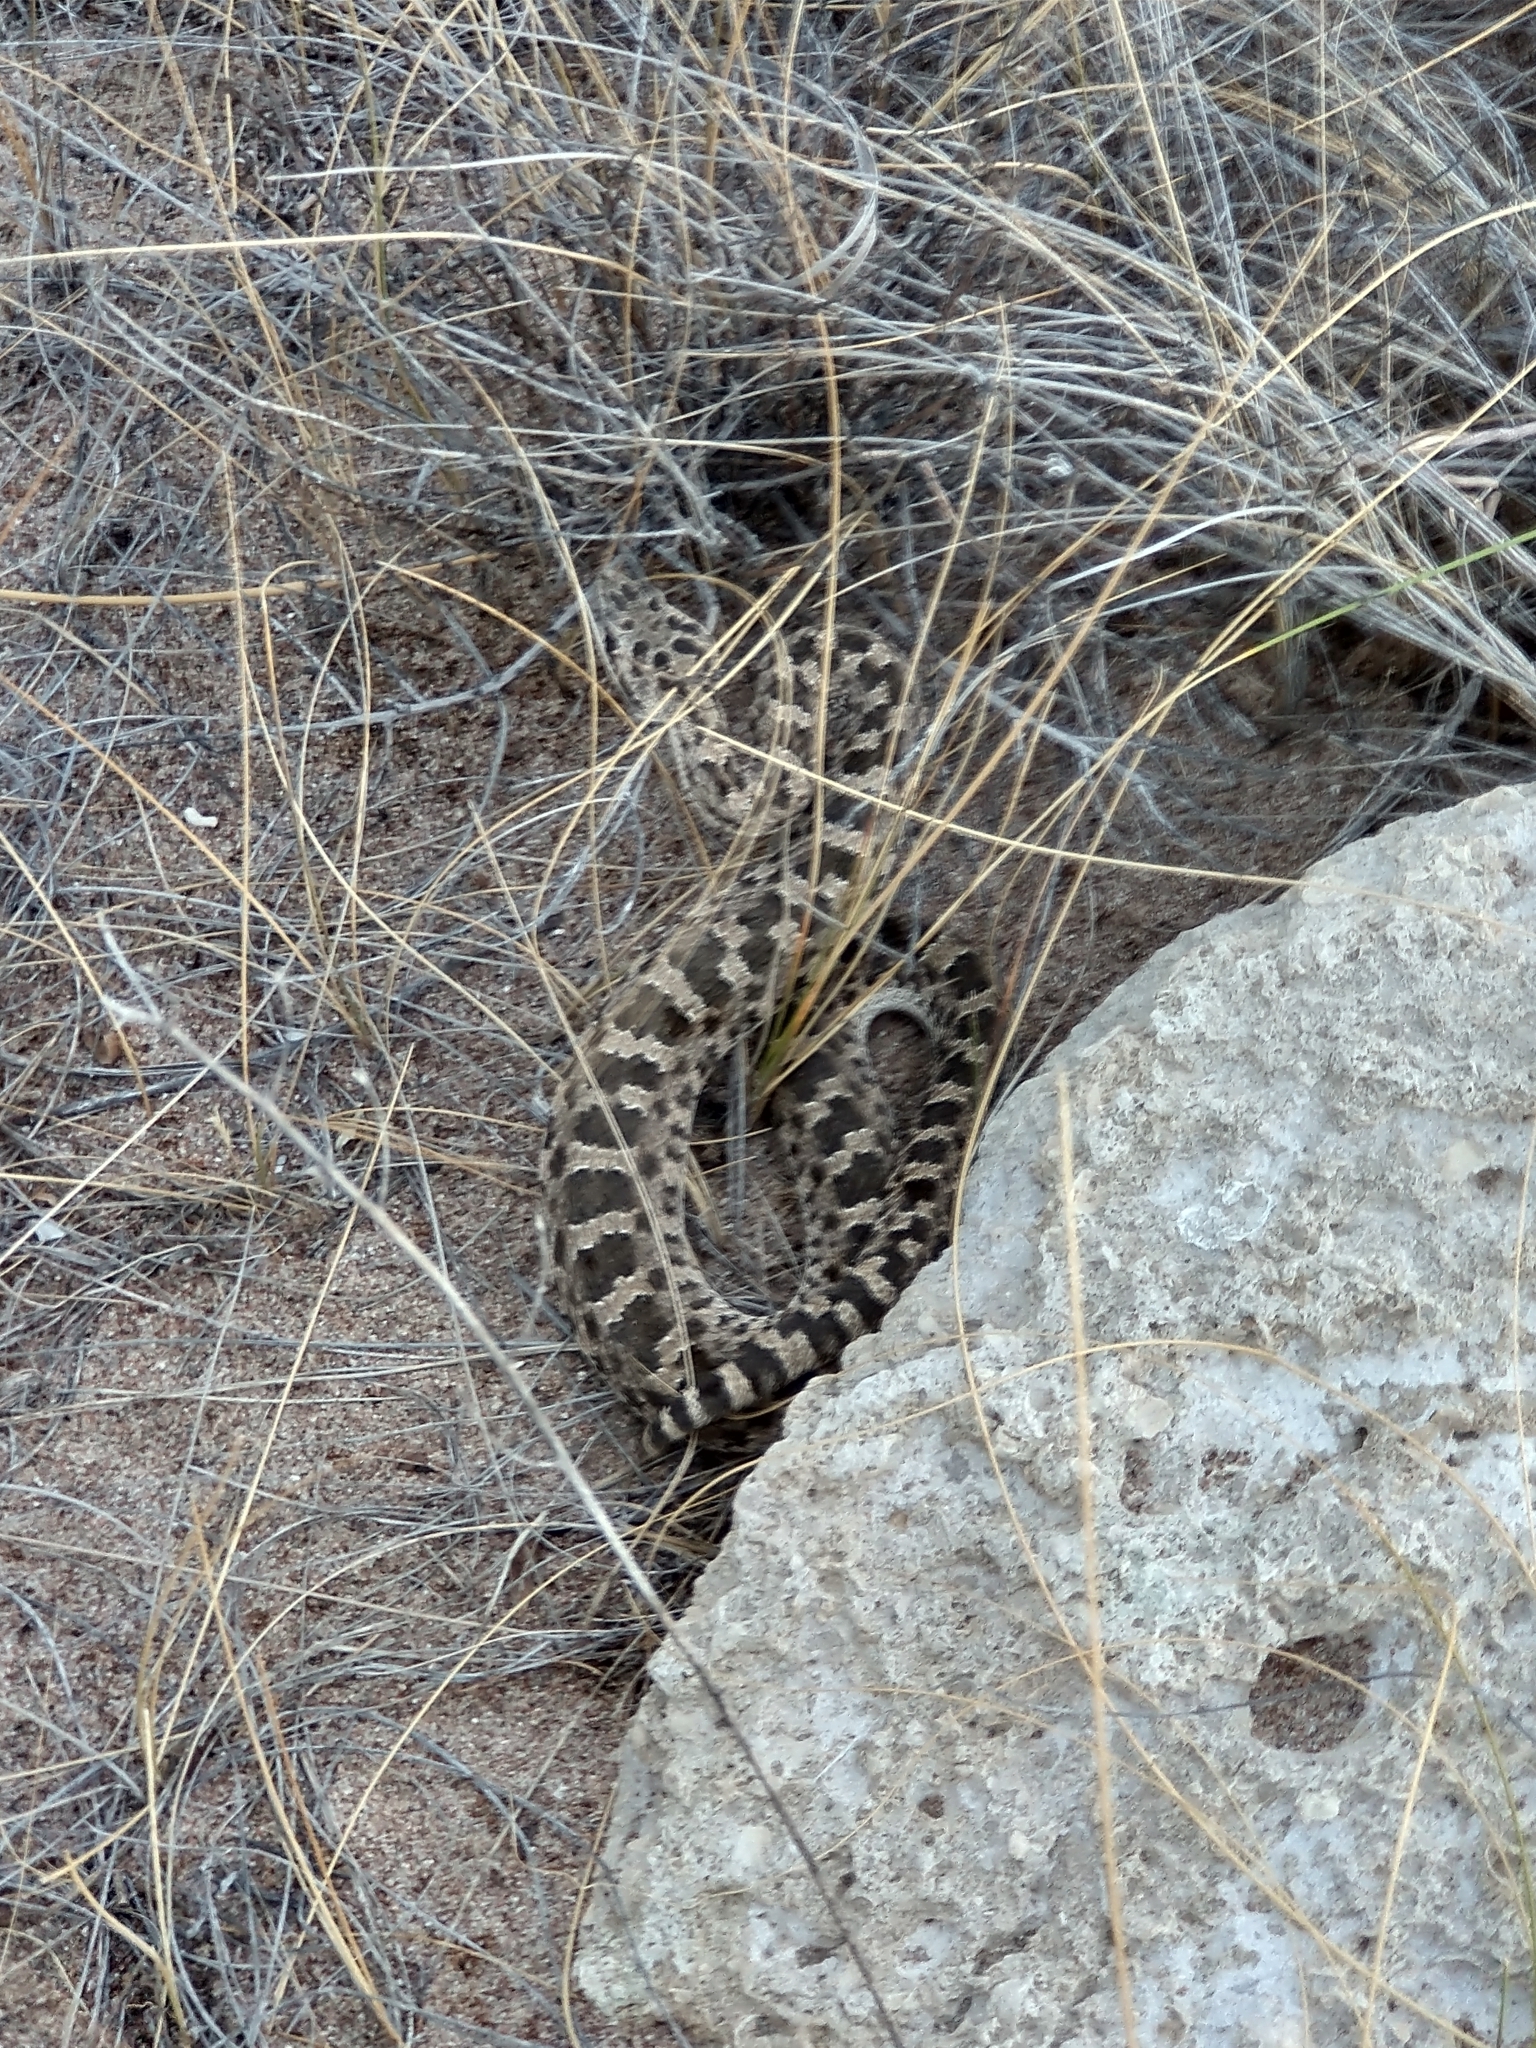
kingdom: Animalia
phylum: Chordata
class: Squamata
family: Viperidae
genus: Bothrops
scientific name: Bothrops ammodytoides
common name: Yararanata
